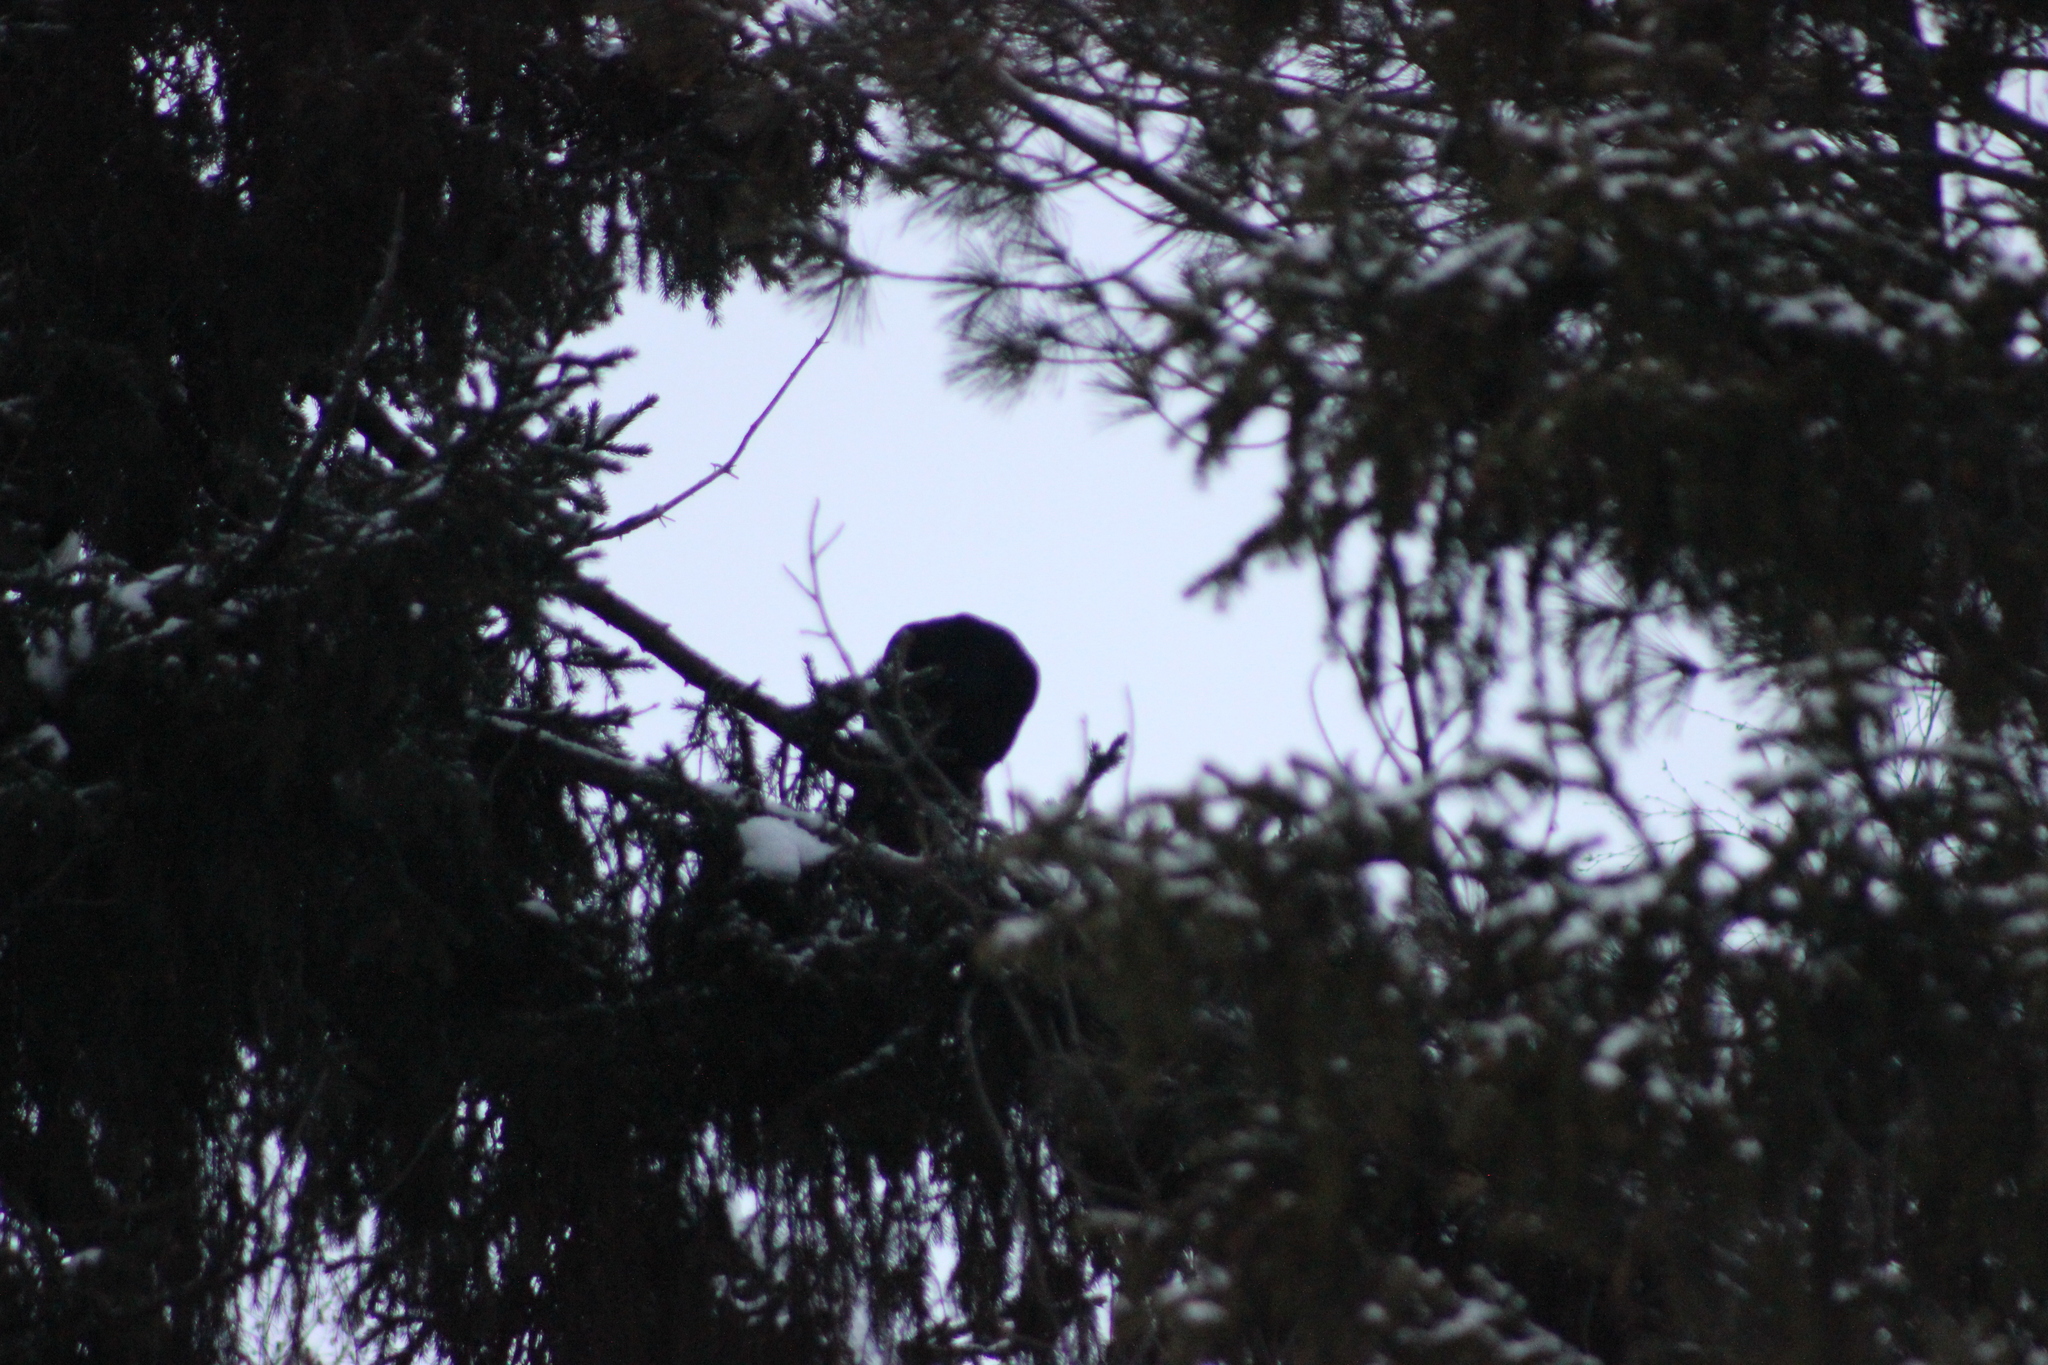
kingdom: Animalia
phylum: Chordata
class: Aves
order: Passeriformes
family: Corvidae
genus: Corvus
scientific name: Corvus corax
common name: Common raven
